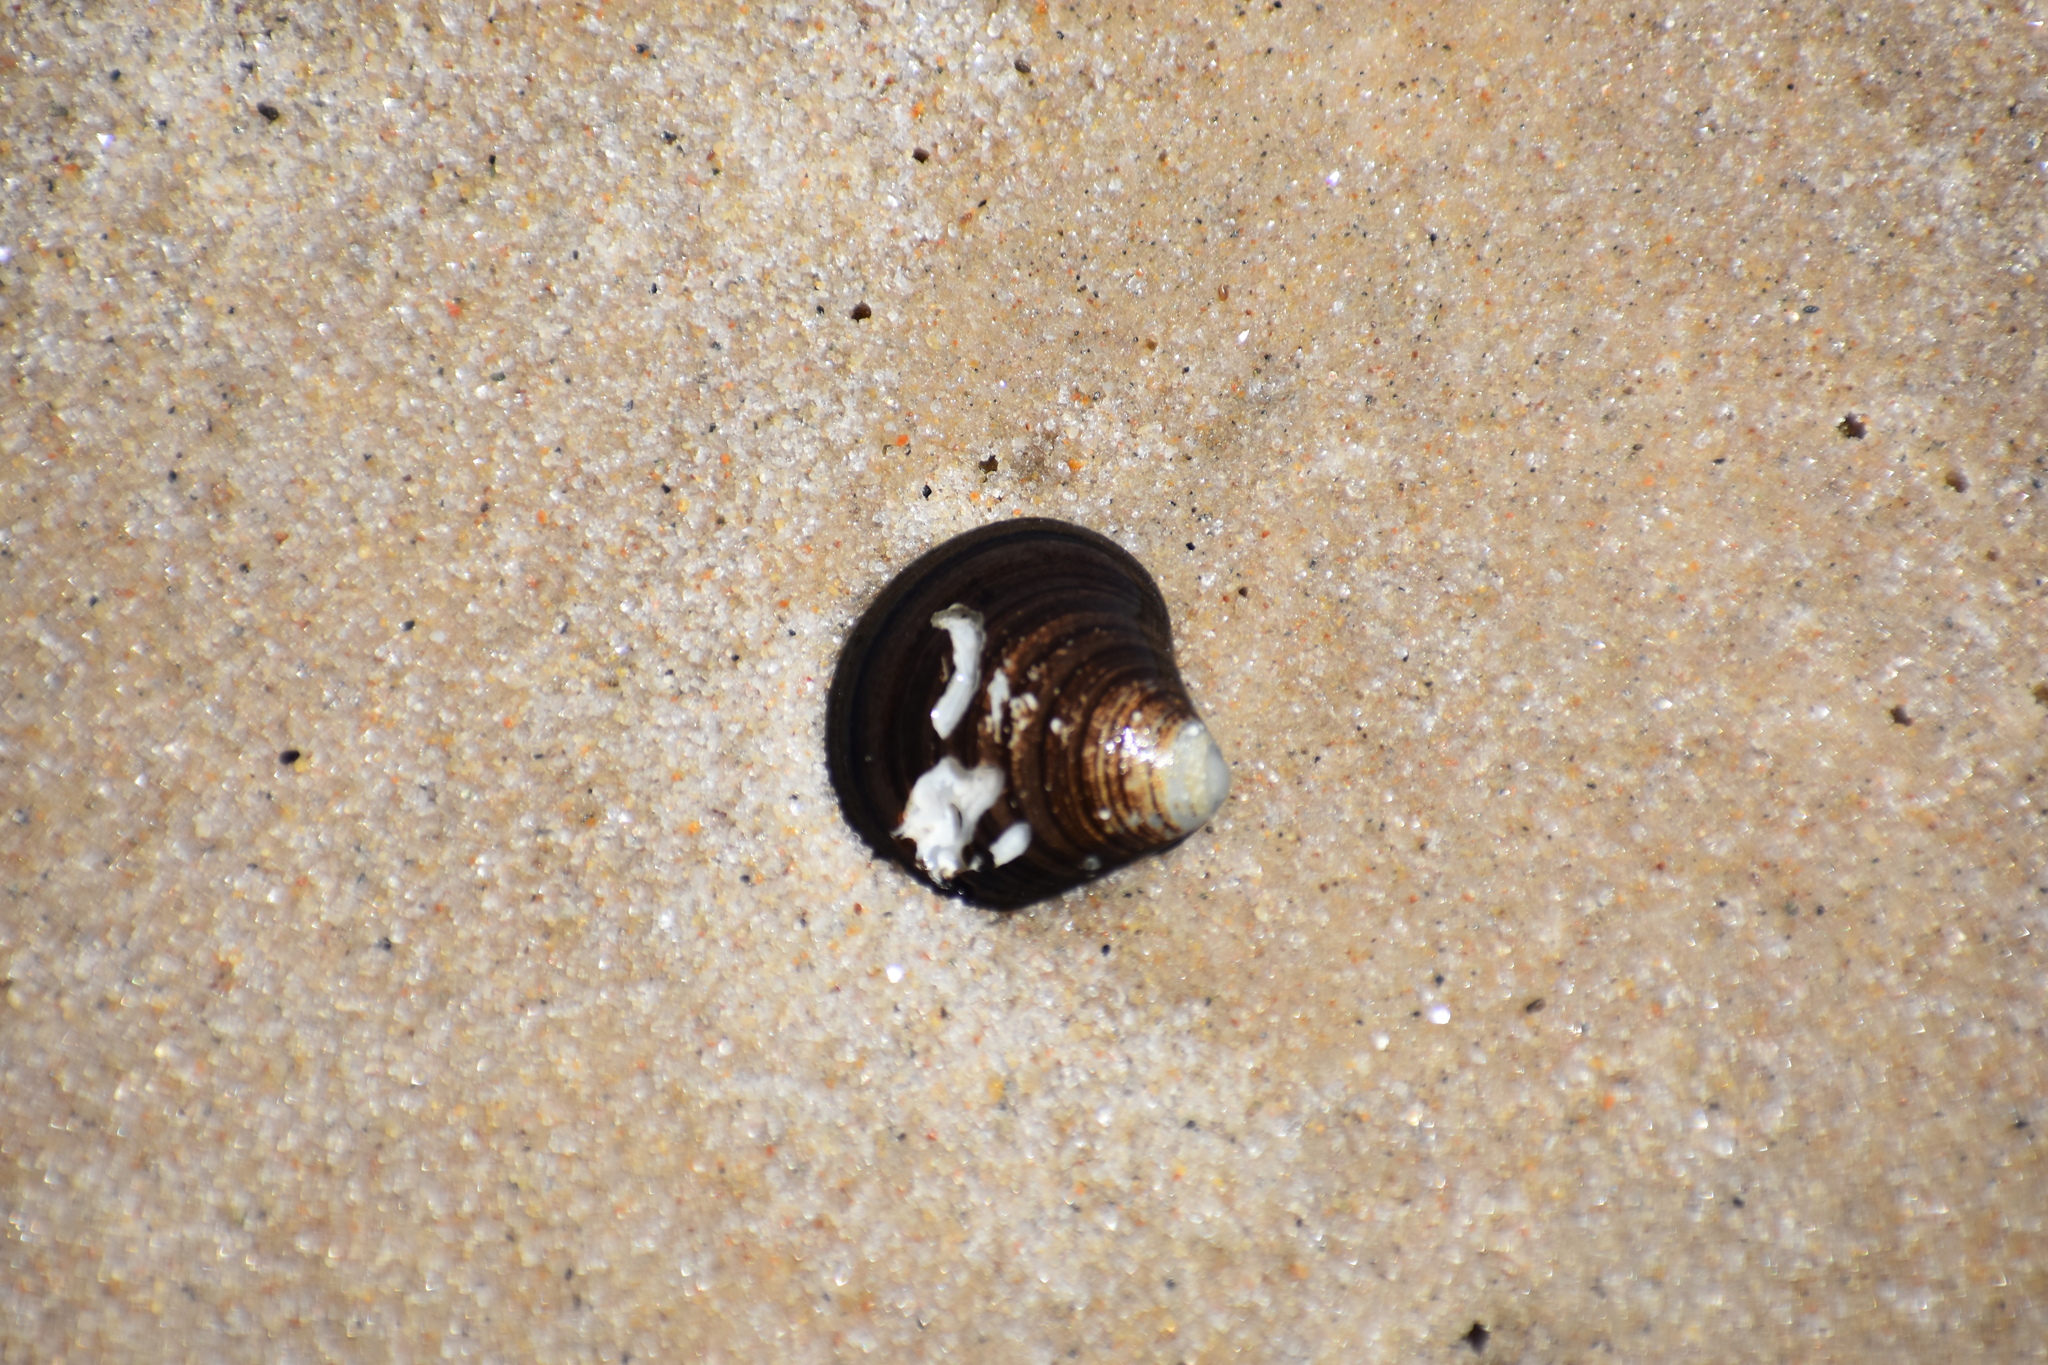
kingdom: Animalia
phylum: Mollusca
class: Bivalvia
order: Cardiida
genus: Isocrassina
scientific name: Isocrassina
